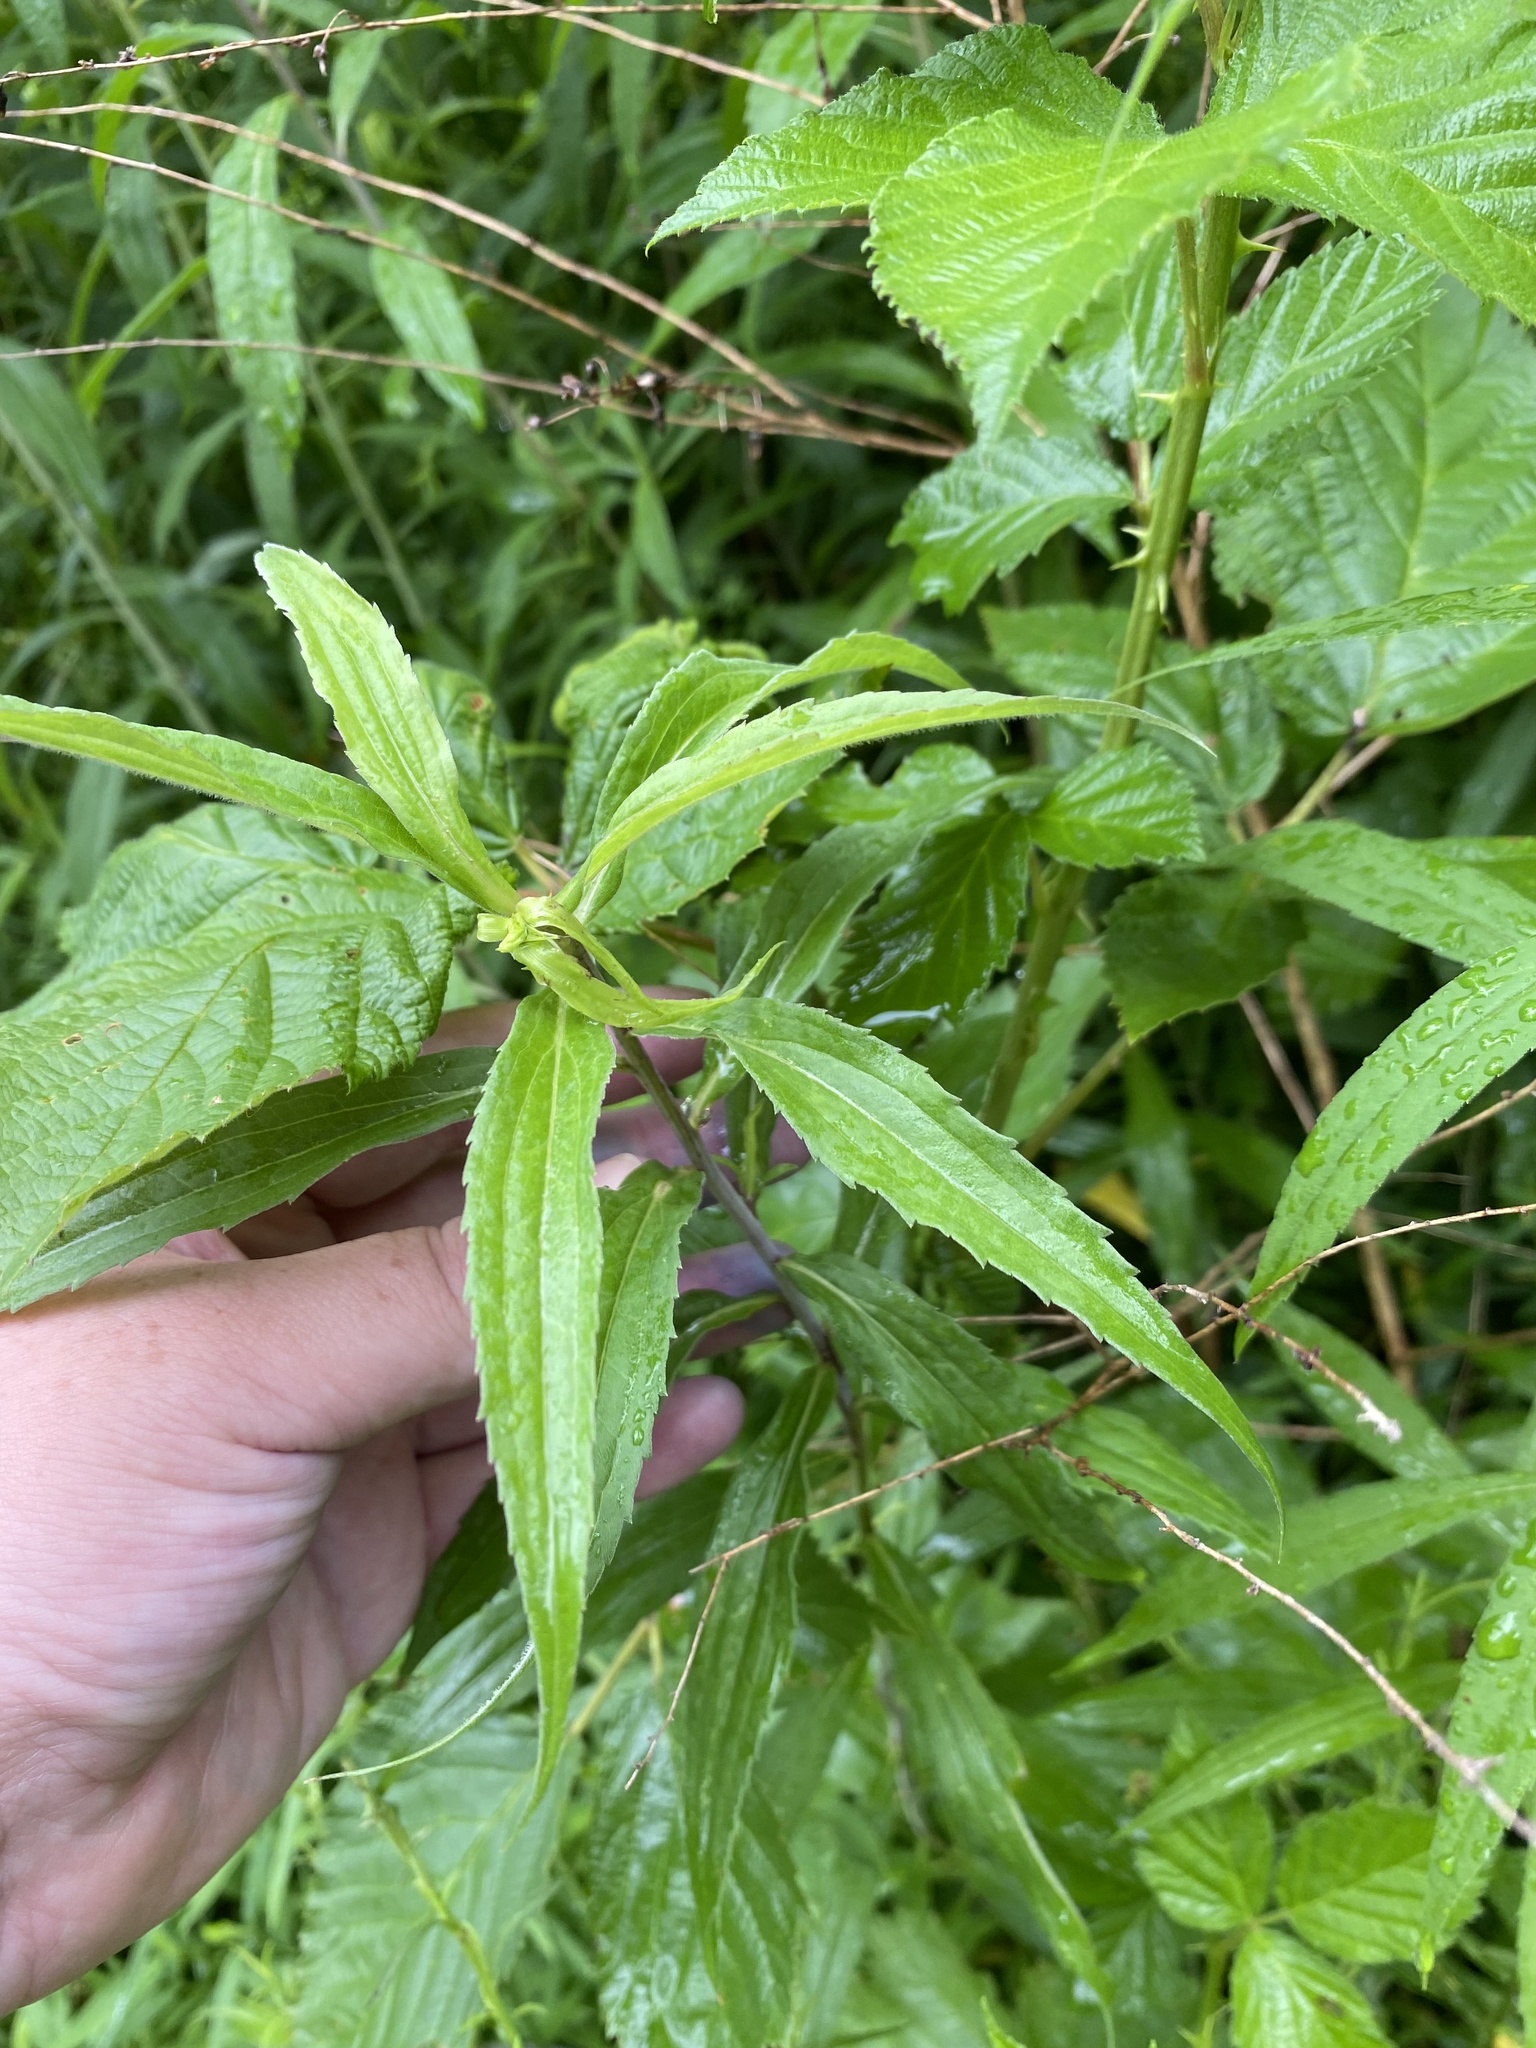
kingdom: Plantae
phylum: Tracheophyta
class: Magnoliopsida
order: Asterales
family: Asteraceae
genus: Solidago
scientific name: Solidago gigantea
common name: Giant goldenrod
